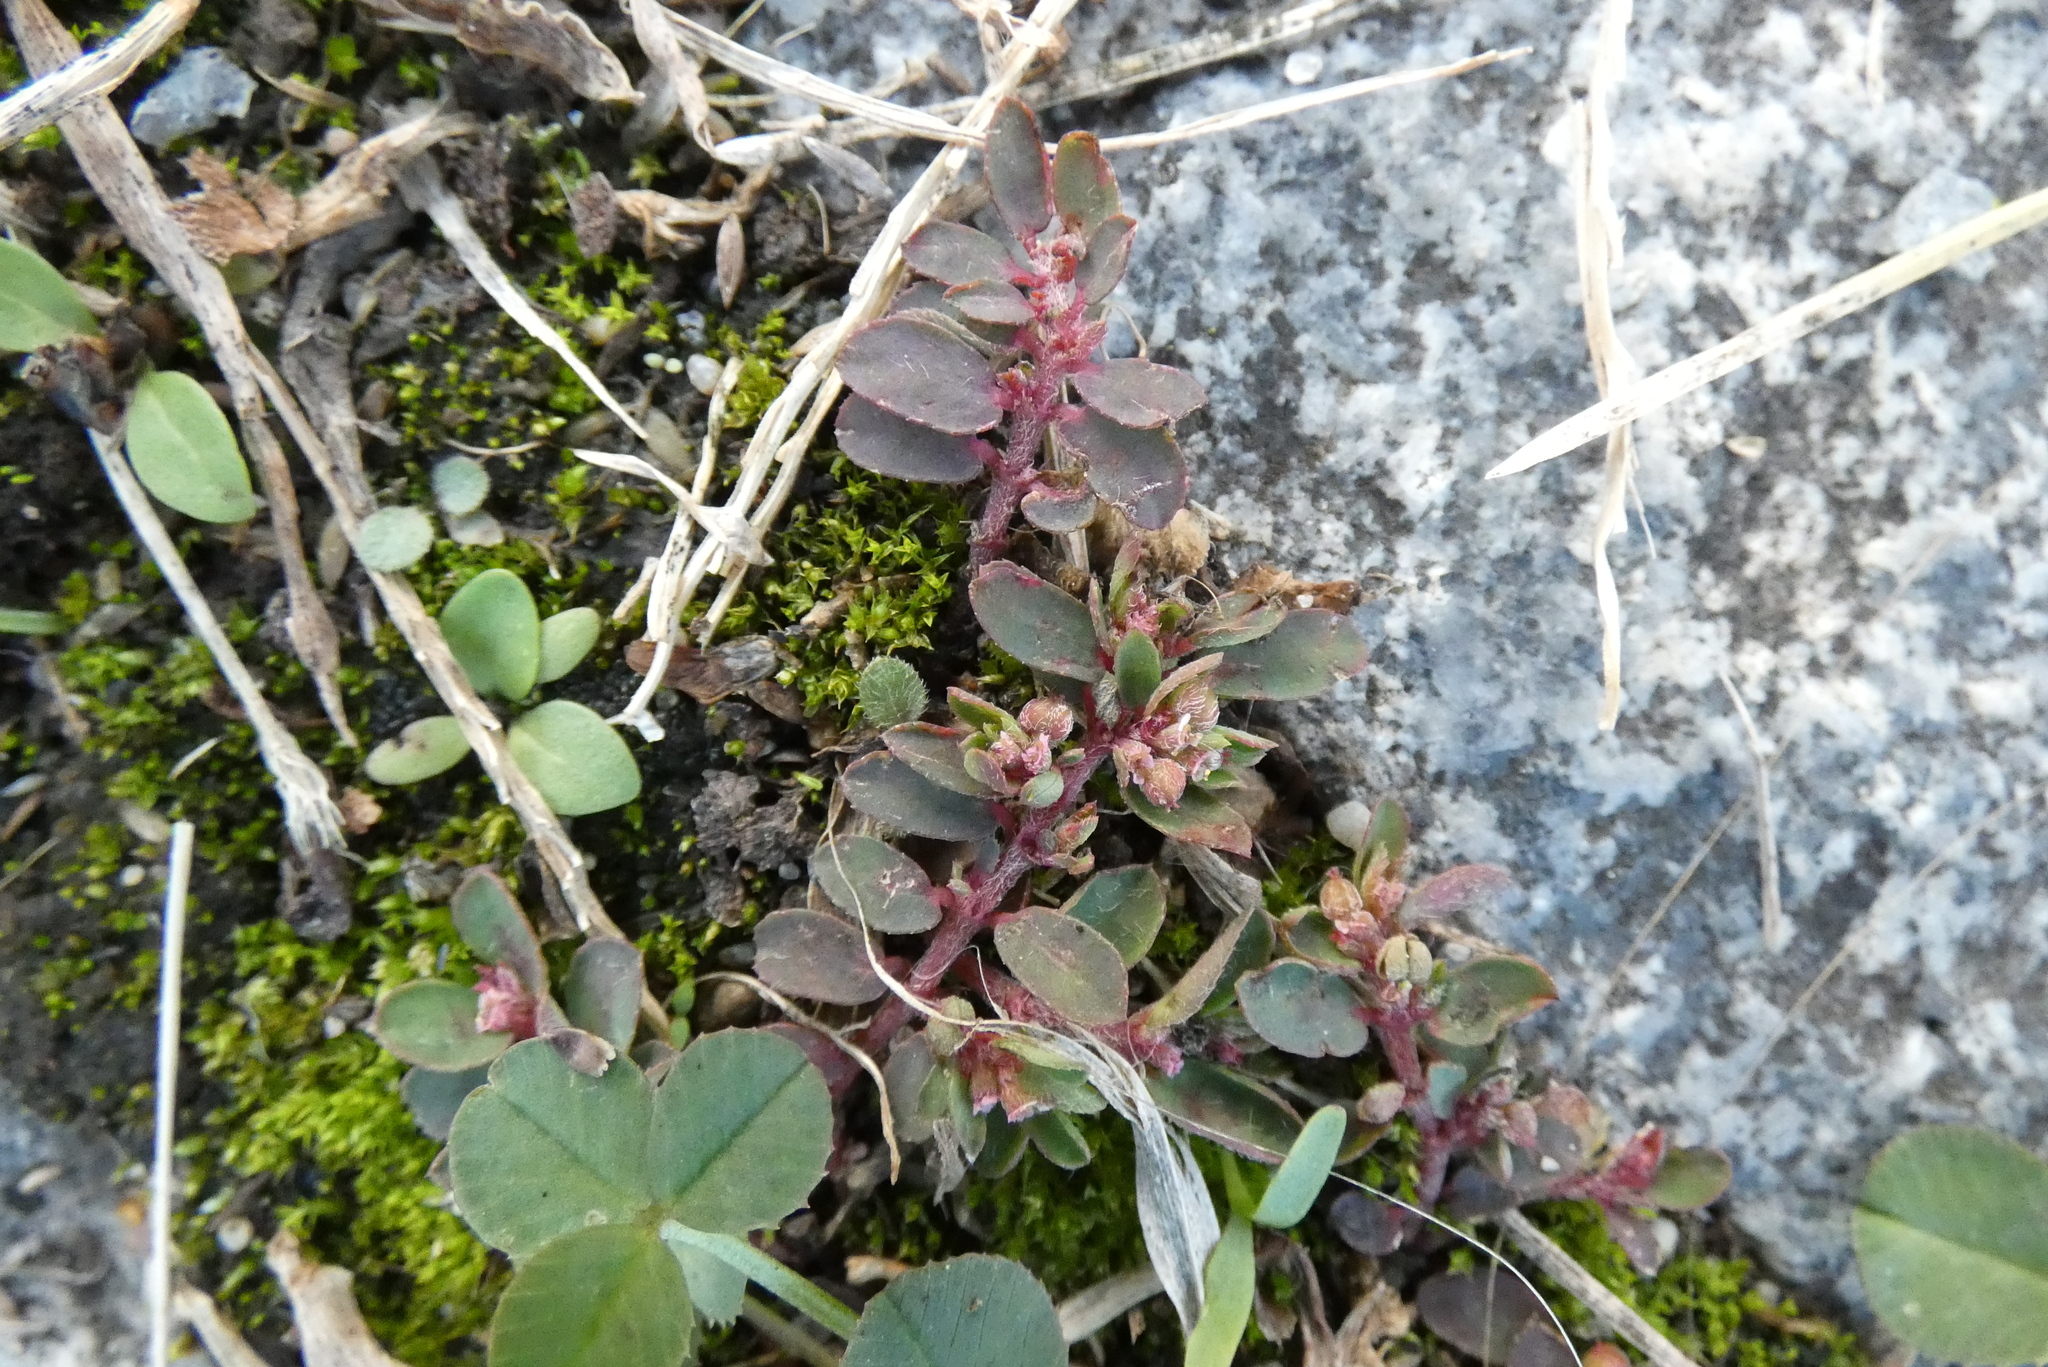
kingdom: Plantae
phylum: Tracheophyta
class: Magnoliopsida
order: Malpighiales
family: Euphorbiaceae
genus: Euphorbia
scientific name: Euphorbia maculata
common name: Spotted spurge
